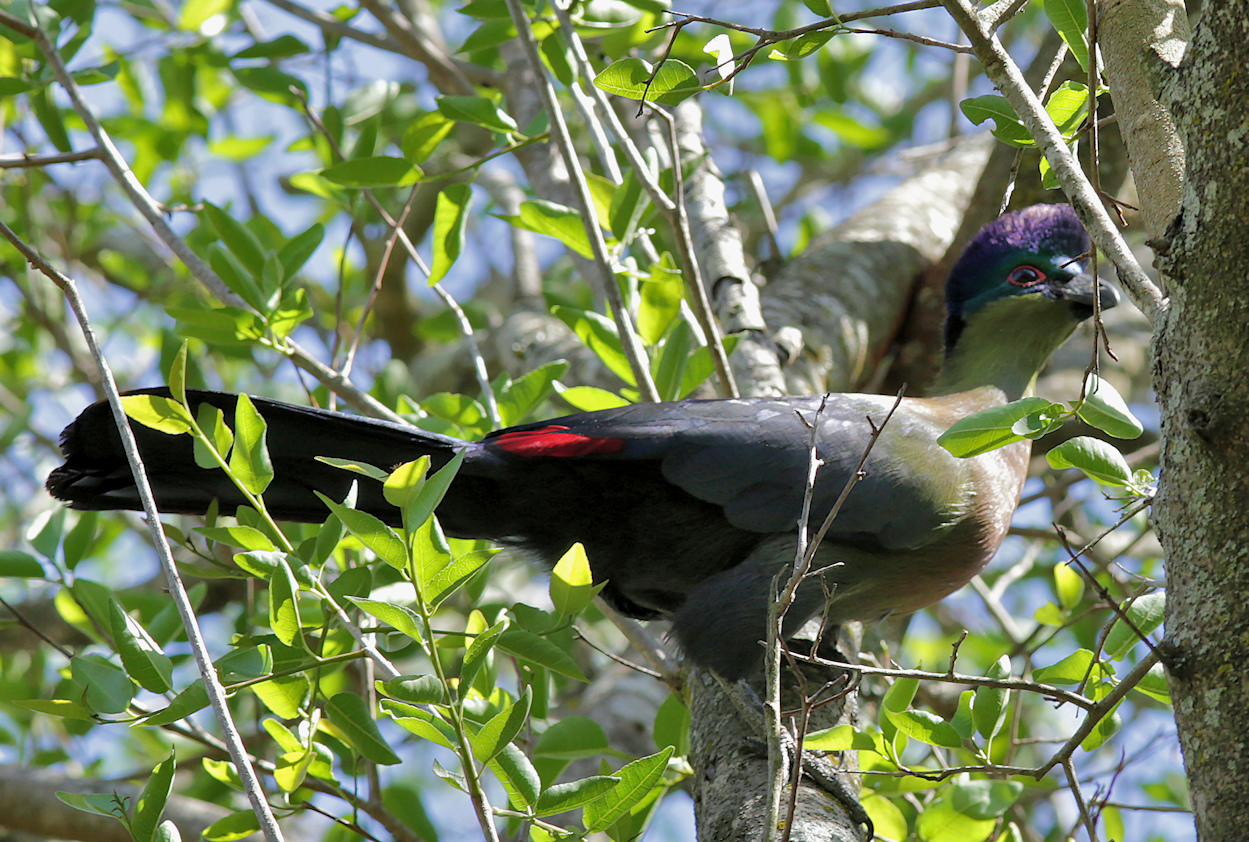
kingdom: Animalia
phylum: Chordata
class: Aves
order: Musophagiformes
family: Musophagidae
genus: Tauraco
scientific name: Tauraco porphyreolophus
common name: Purple-crested turaco
